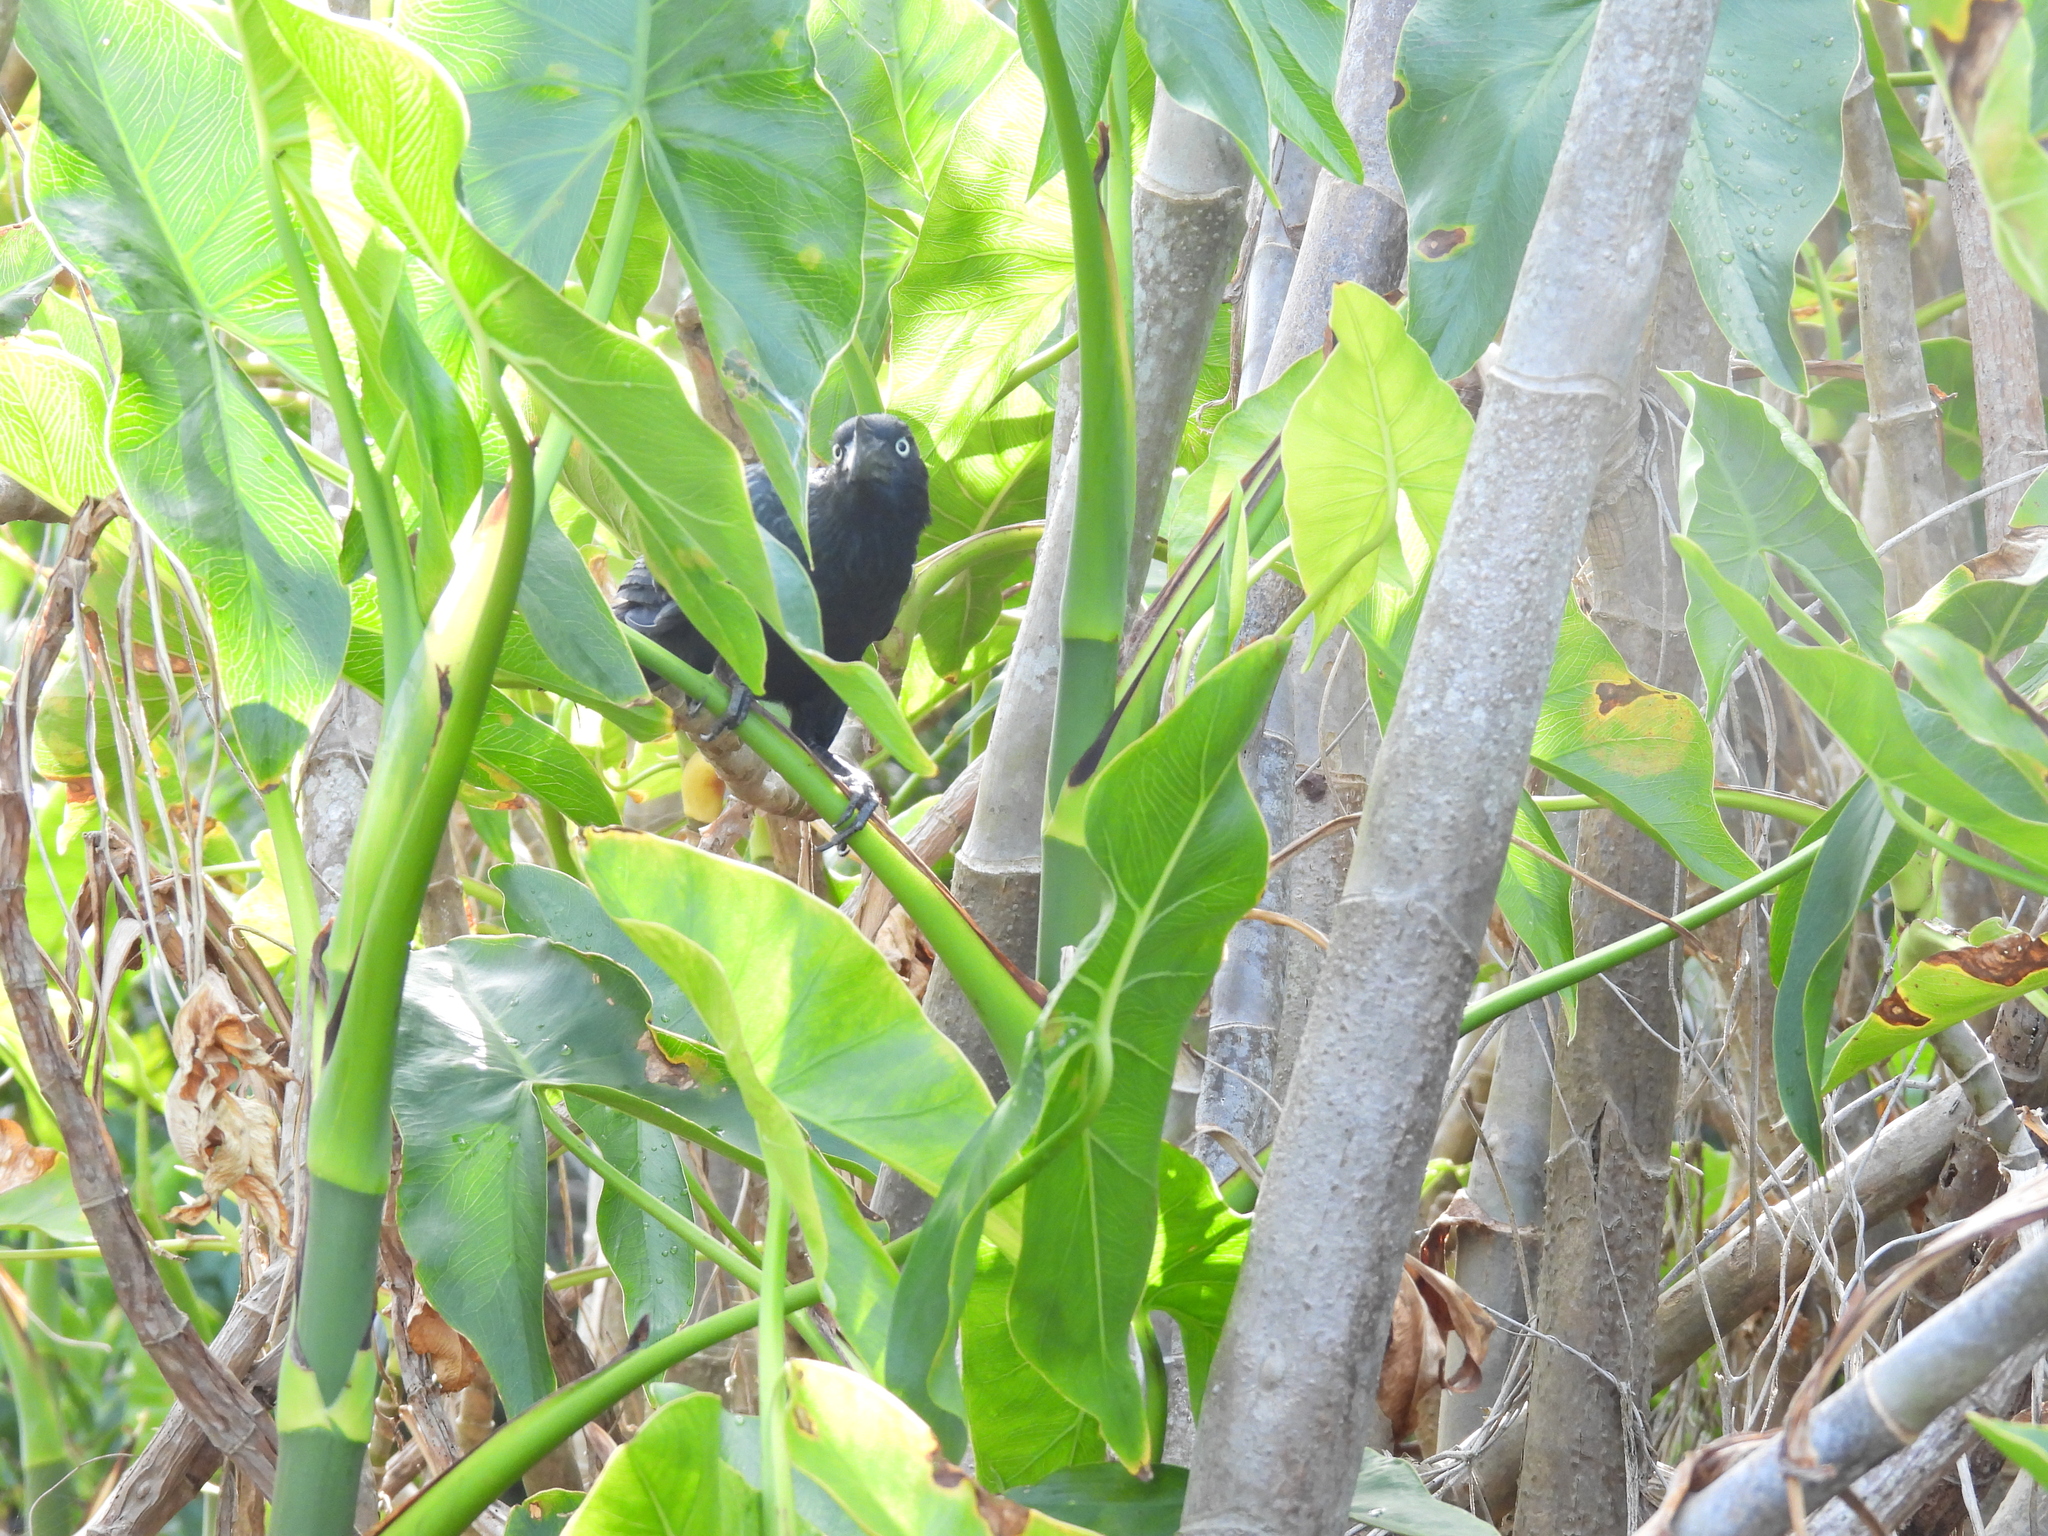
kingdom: Animalia
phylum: Chordata
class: Aves
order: Cuculiformes
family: Cuculidae
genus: Crotophaga
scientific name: Crotophaga major
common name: Greater ani
